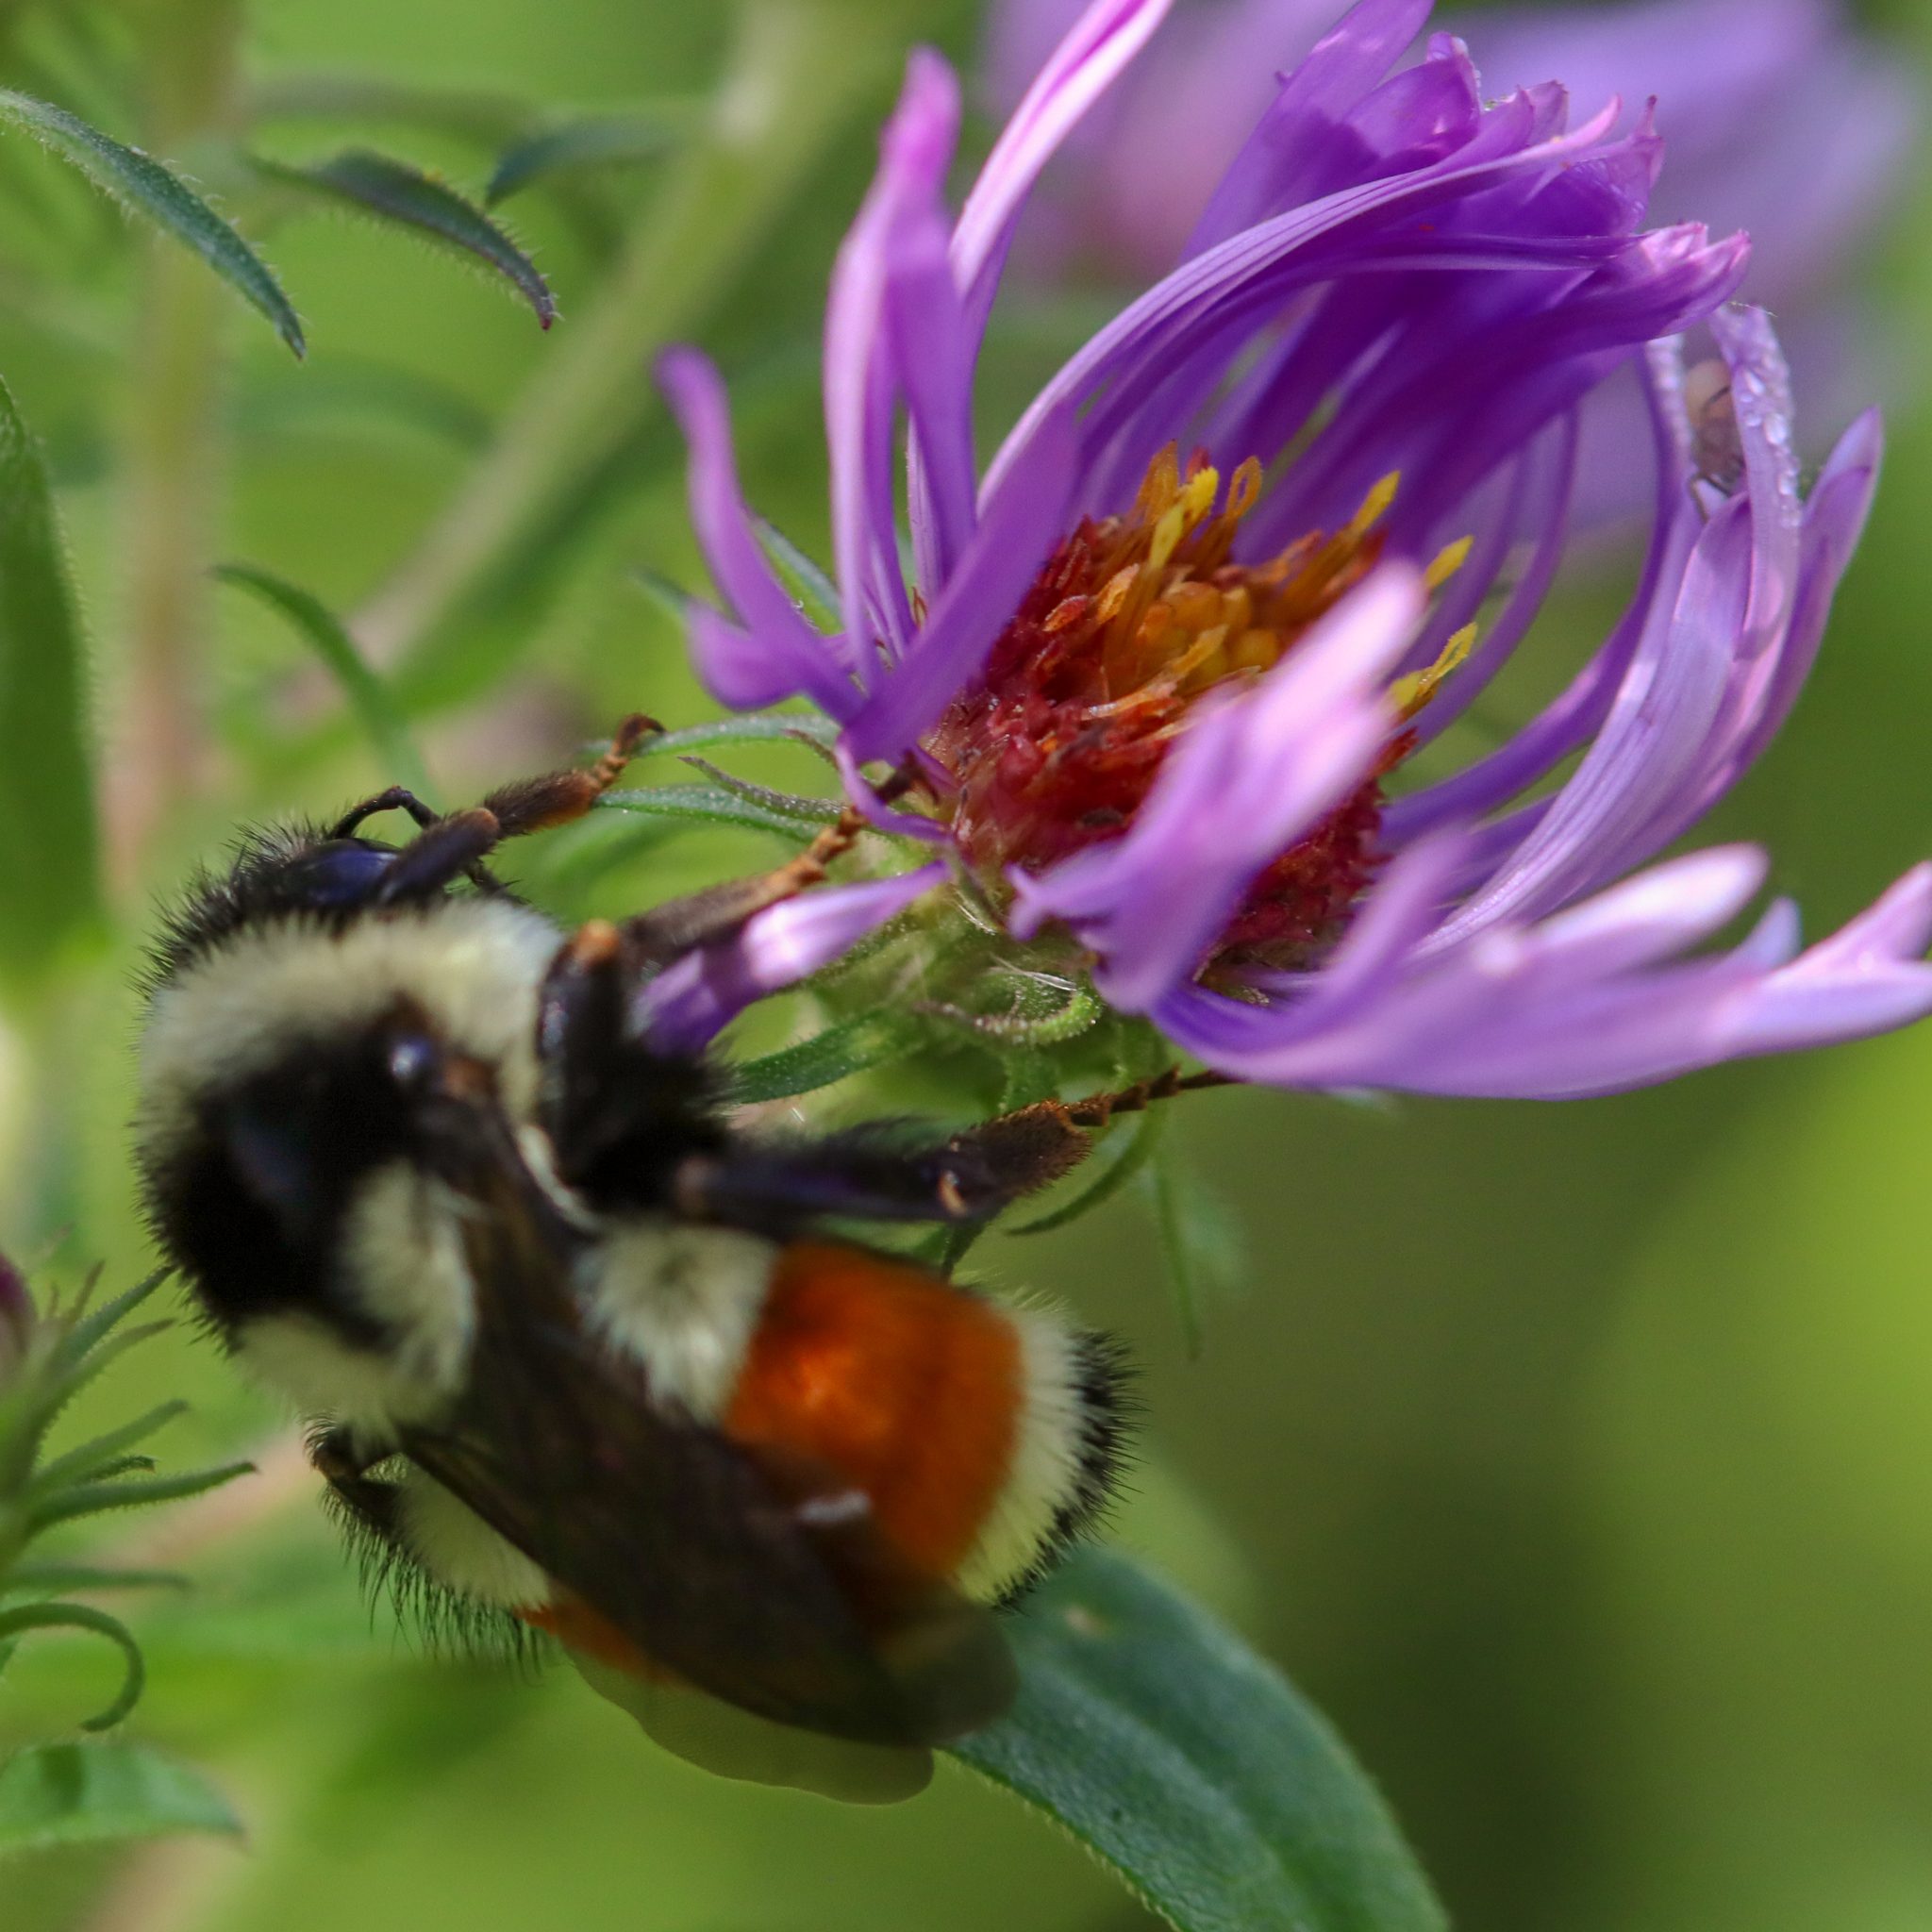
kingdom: Animalia
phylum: Arthropoda
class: Insecta
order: Hymenoptera
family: Apidae
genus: Bombus
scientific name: Bombus ternarius
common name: Tri-colored bumble bee
